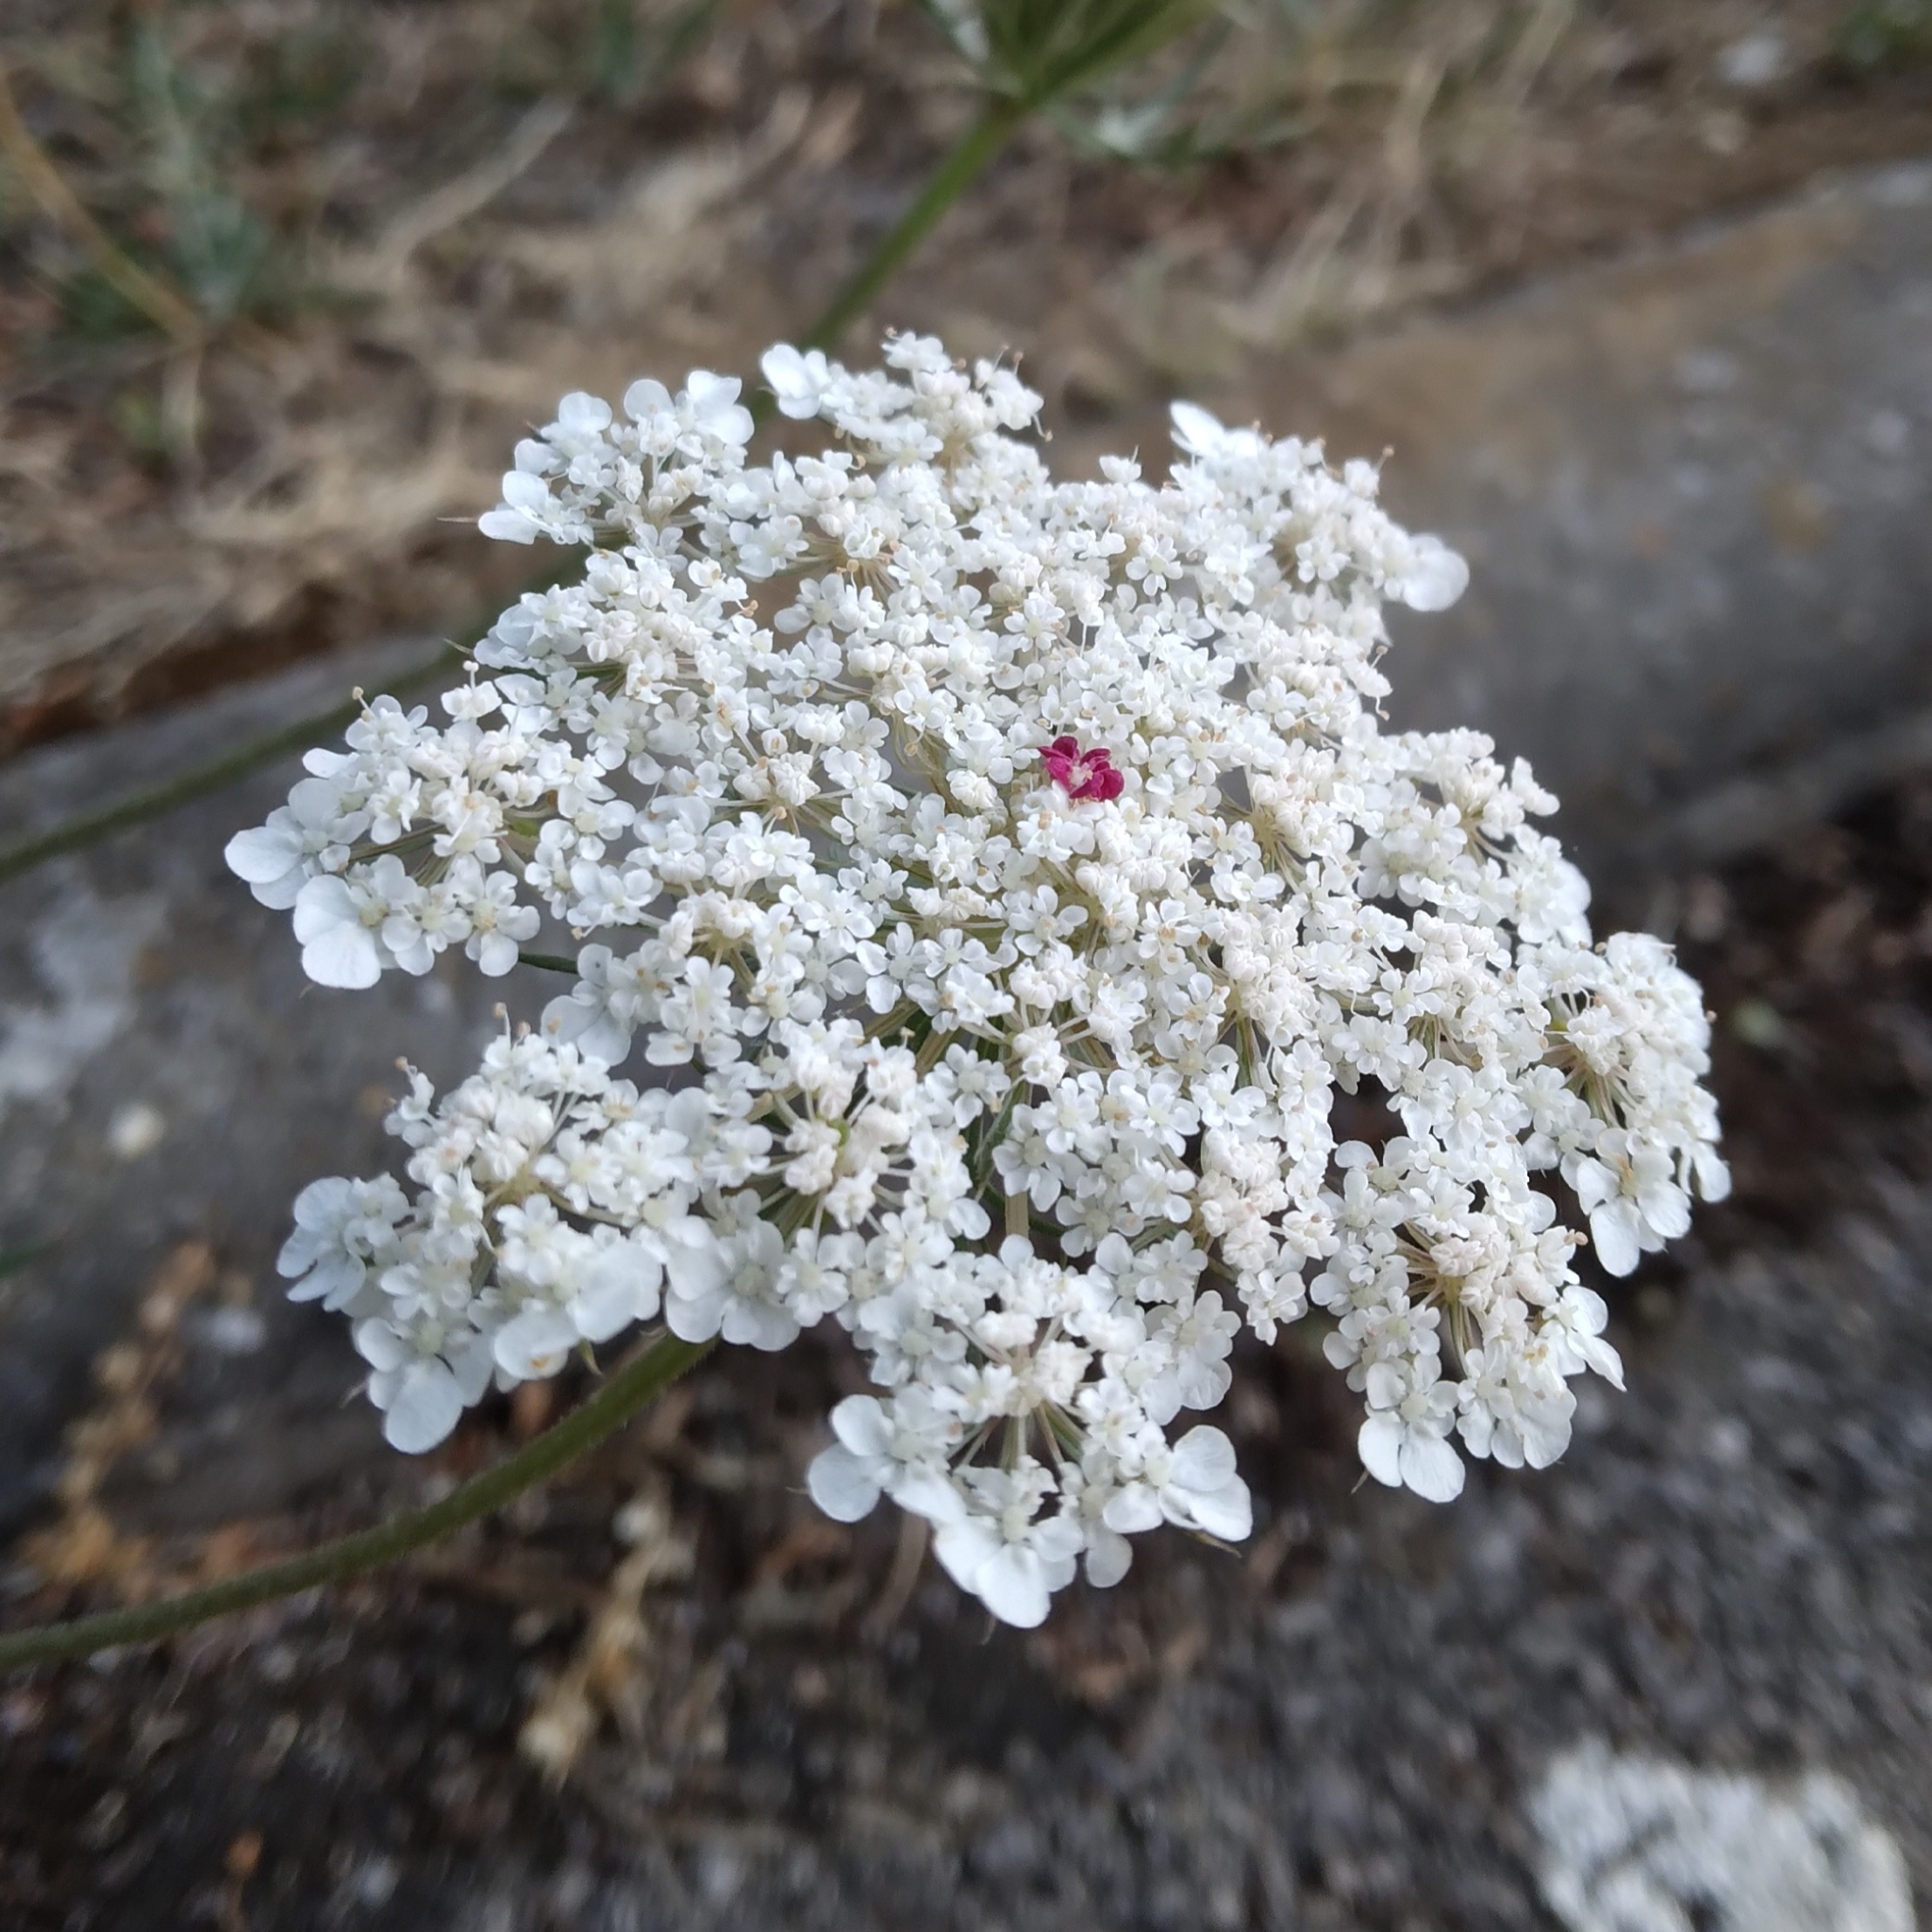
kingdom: Plantae
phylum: Tracheophyta
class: Magnoliopsida
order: Apiales
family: Apiaceae
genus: Daucus
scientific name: Daucus carota
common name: Wild carrot
